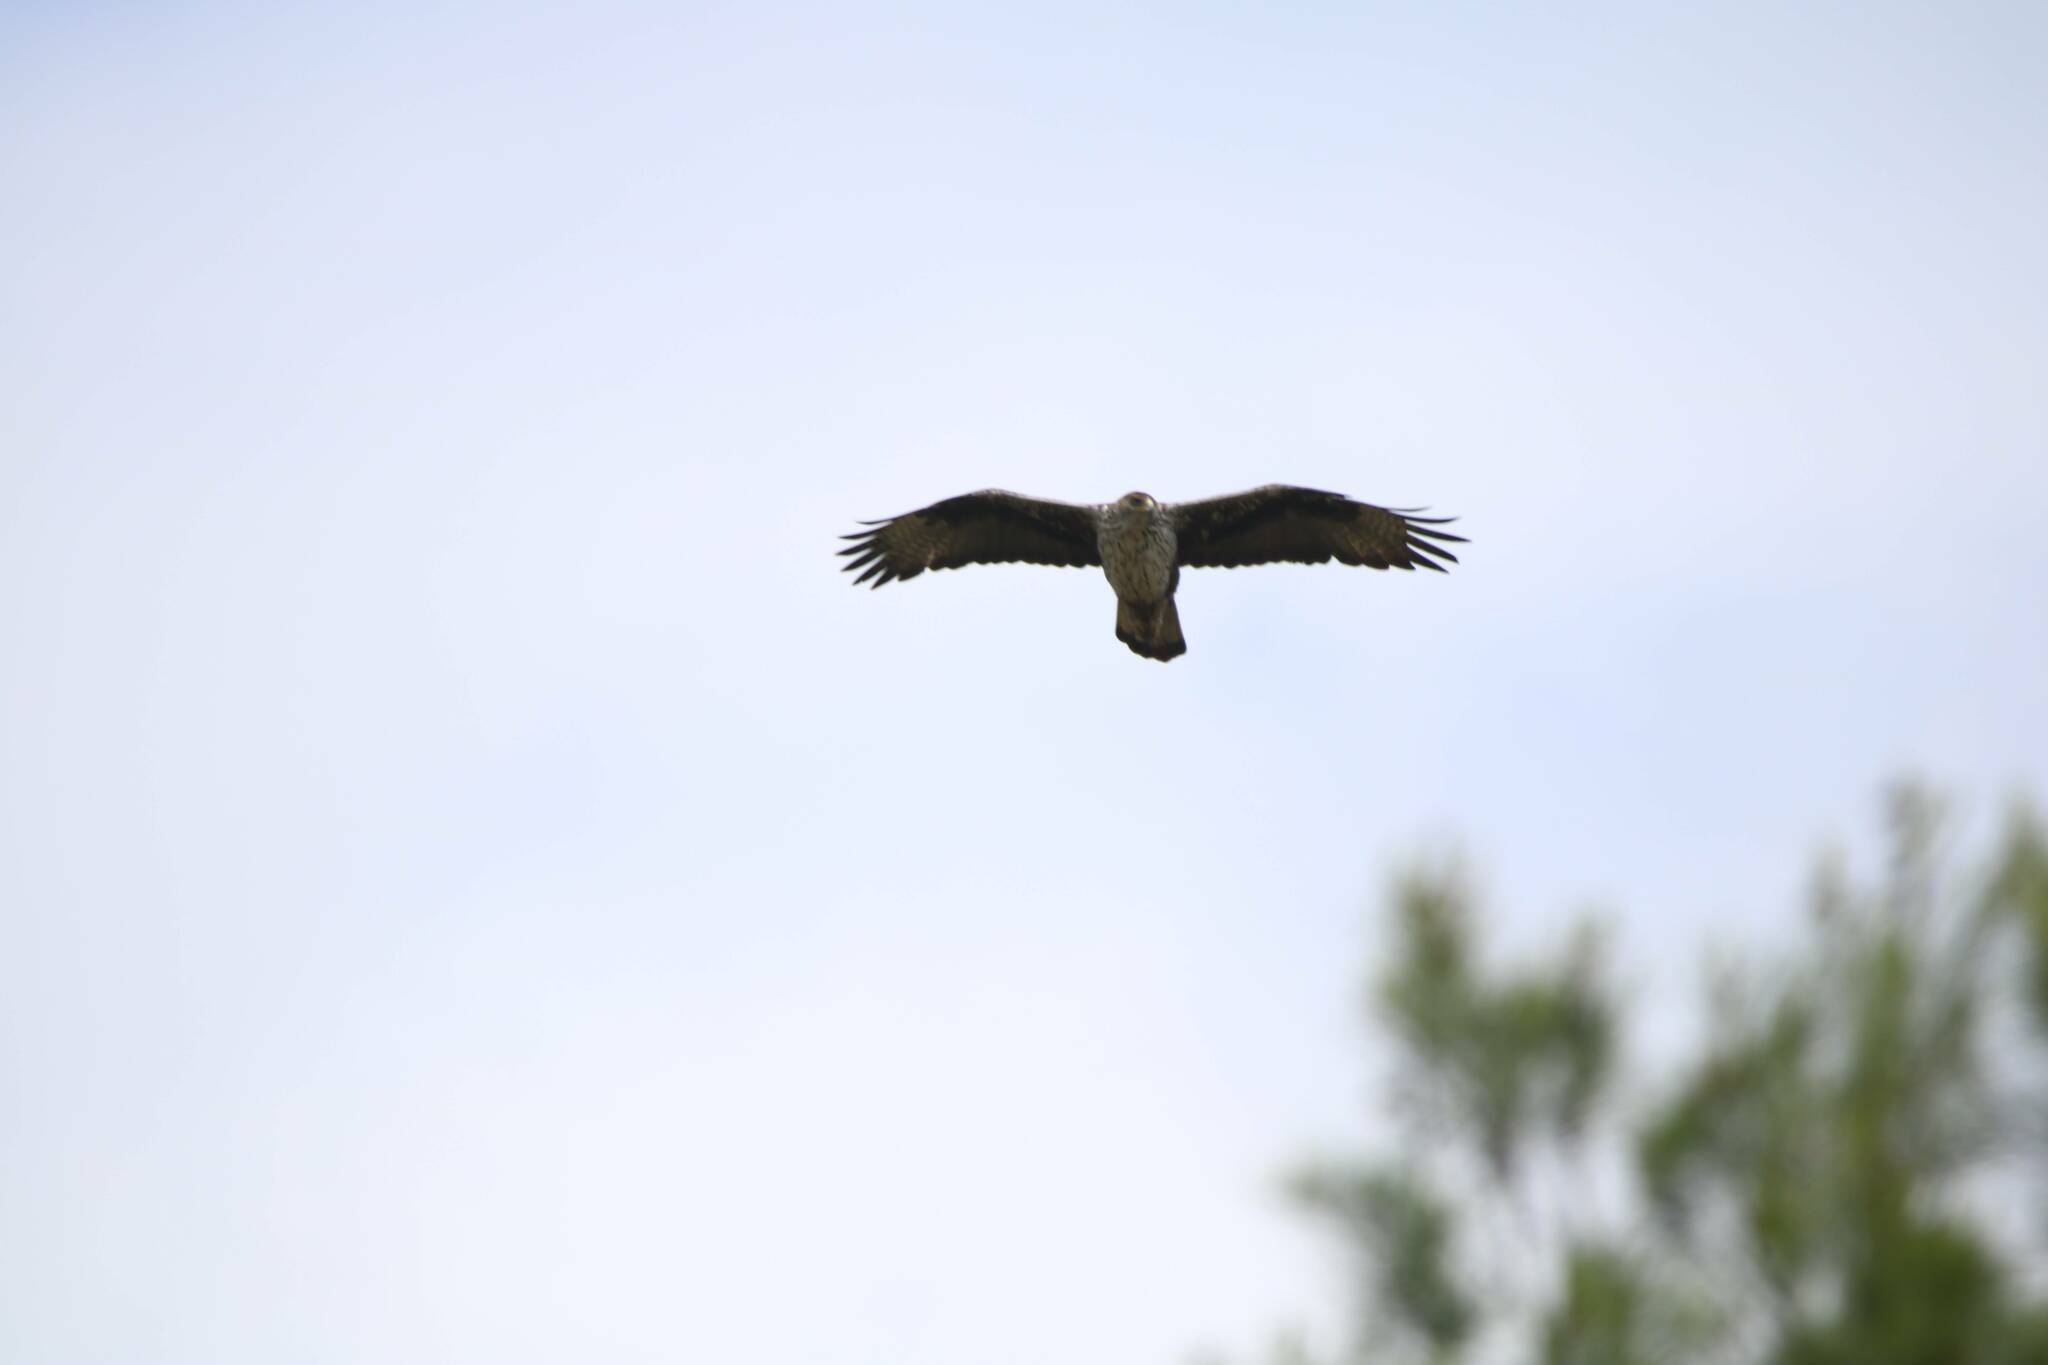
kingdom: Animalia
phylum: Chordata
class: Aves
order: Accipitriformes
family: Accipitridae
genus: Aquila
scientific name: Aquila fasciata
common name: Bonelli's eagle
